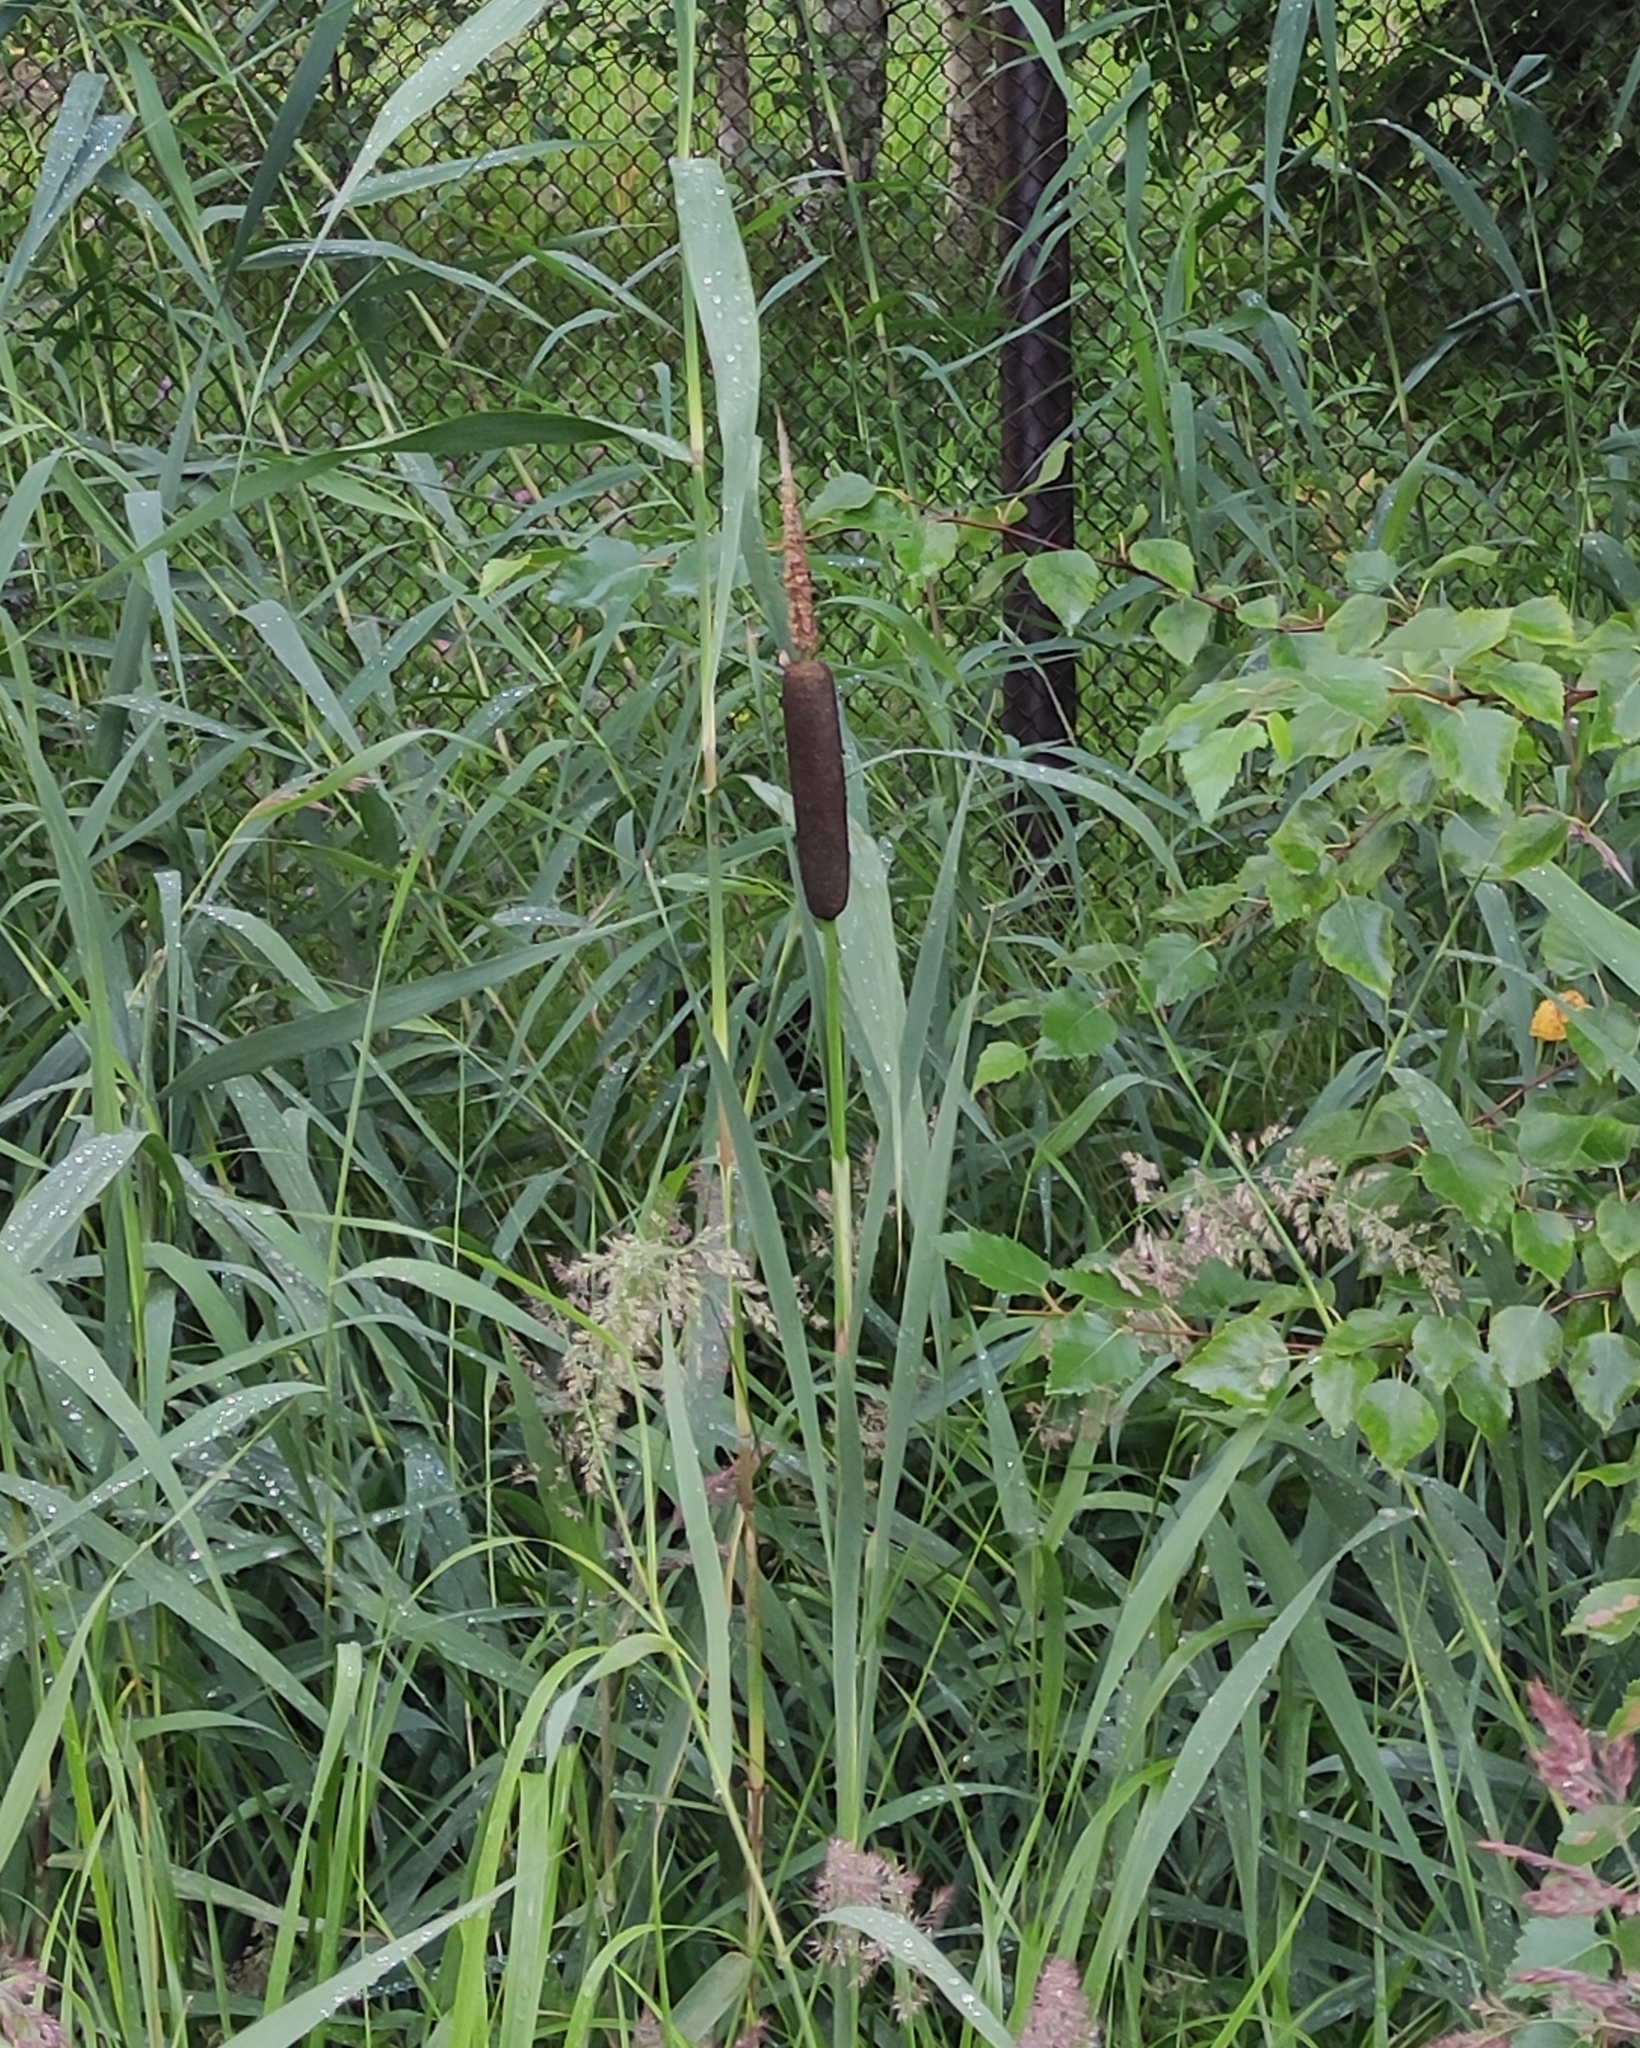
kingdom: Plantae
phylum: Tracheophyta
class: Liliopsida
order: Poales
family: Typhaceae
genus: Typha
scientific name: Typha latifolia
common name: Broadleaf cattail
